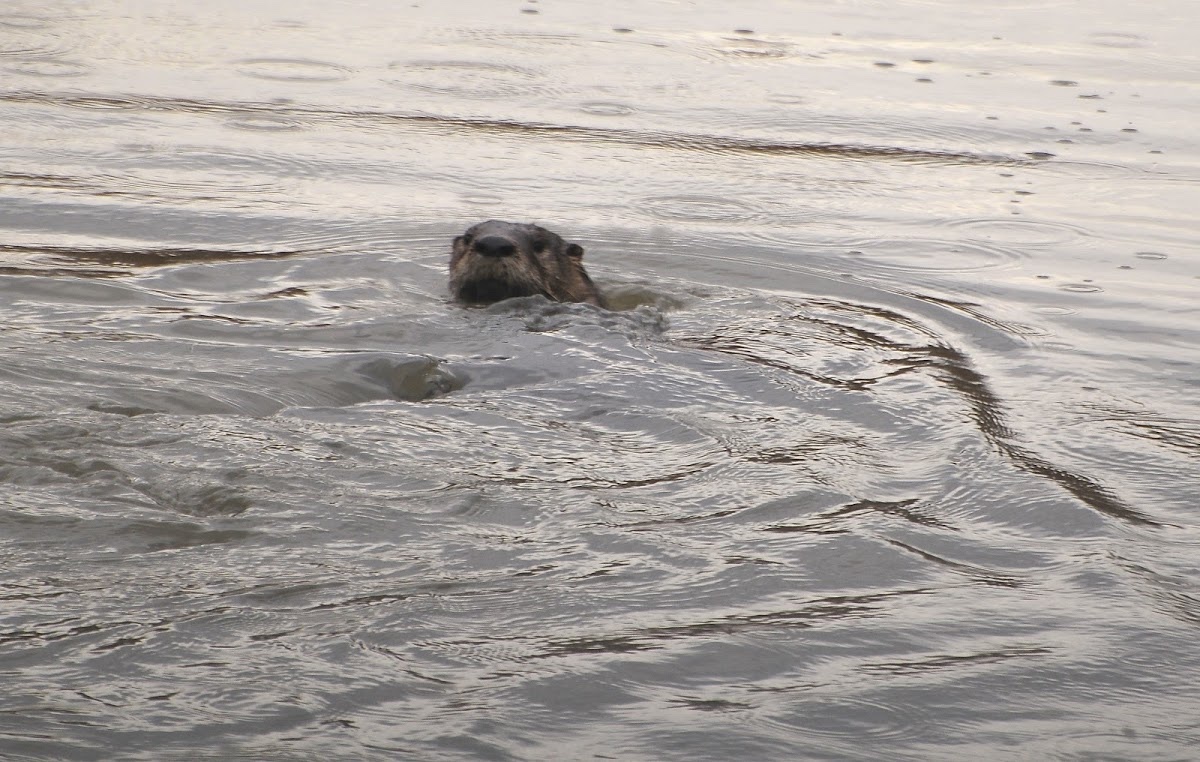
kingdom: Animalia
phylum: Chordata
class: Mammalia
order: Carnivora
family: Mustelidae
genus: Lontra
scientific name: Lontra canadensis
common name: North american river otter
